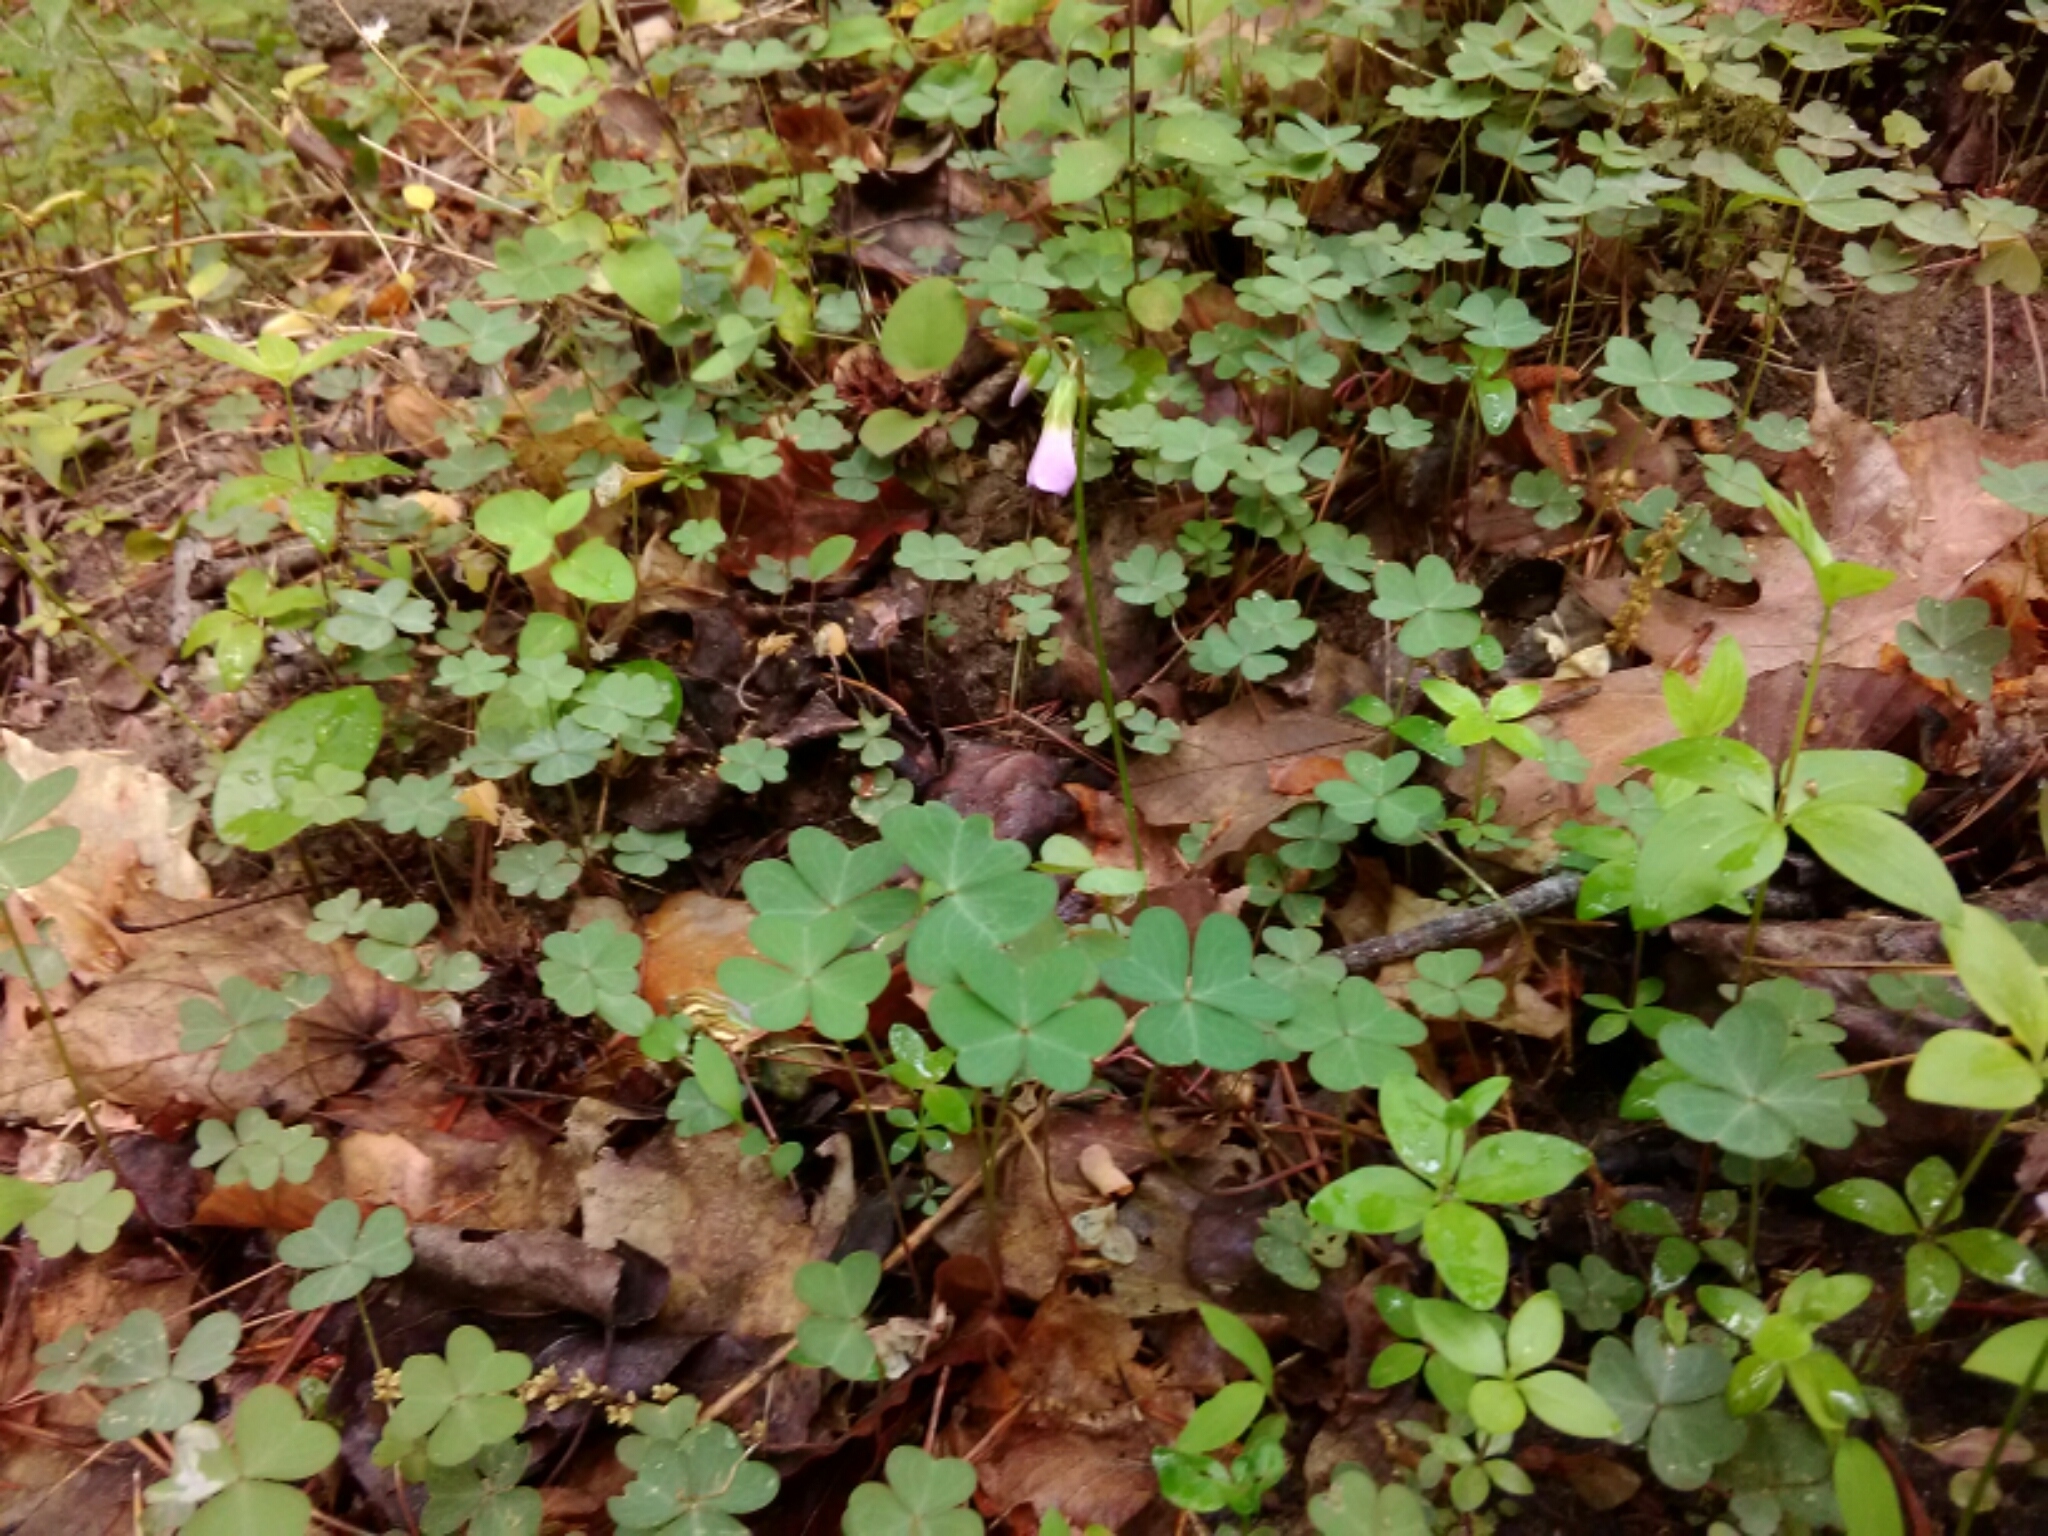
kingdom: Plantae
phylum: Tracheophyta
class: Magnoliopsida
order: Oxalidales
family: Oxalidaceae
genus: Oxalis
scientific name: Oxalis violacea
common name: Violet wood-sorrel
